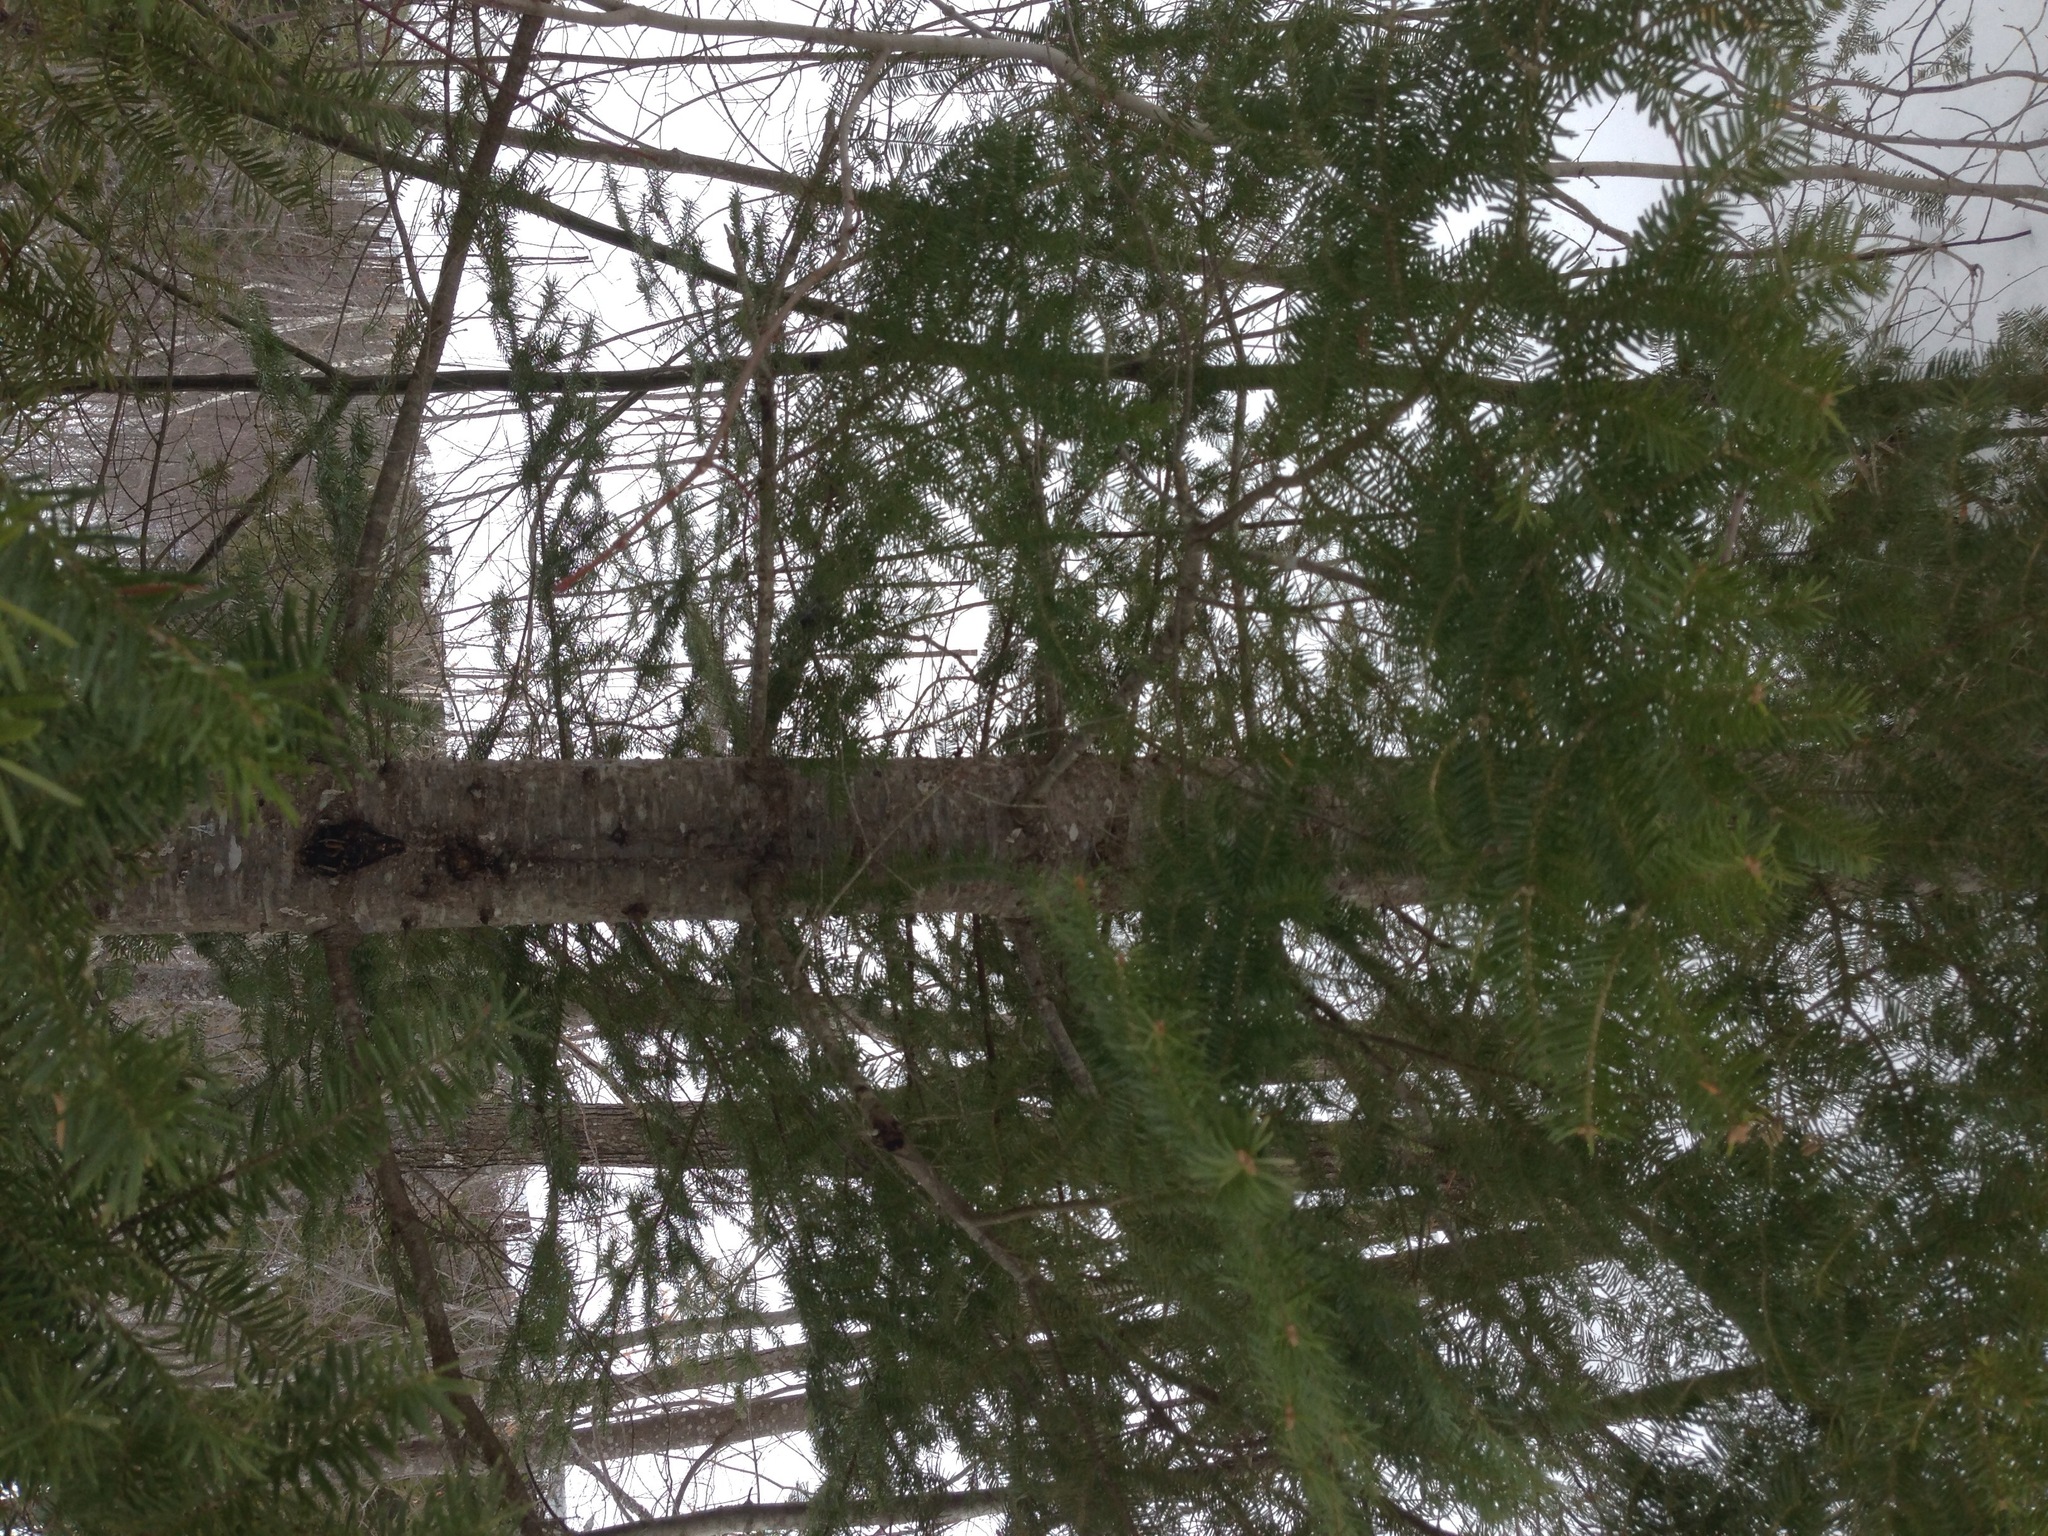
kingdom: Plantae
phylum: Tracheophyta
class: Pinopsida
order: Pinales
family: Pinaceae
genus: Tsuga
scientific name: Tsuga canadensis
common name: Eastern hemlock
